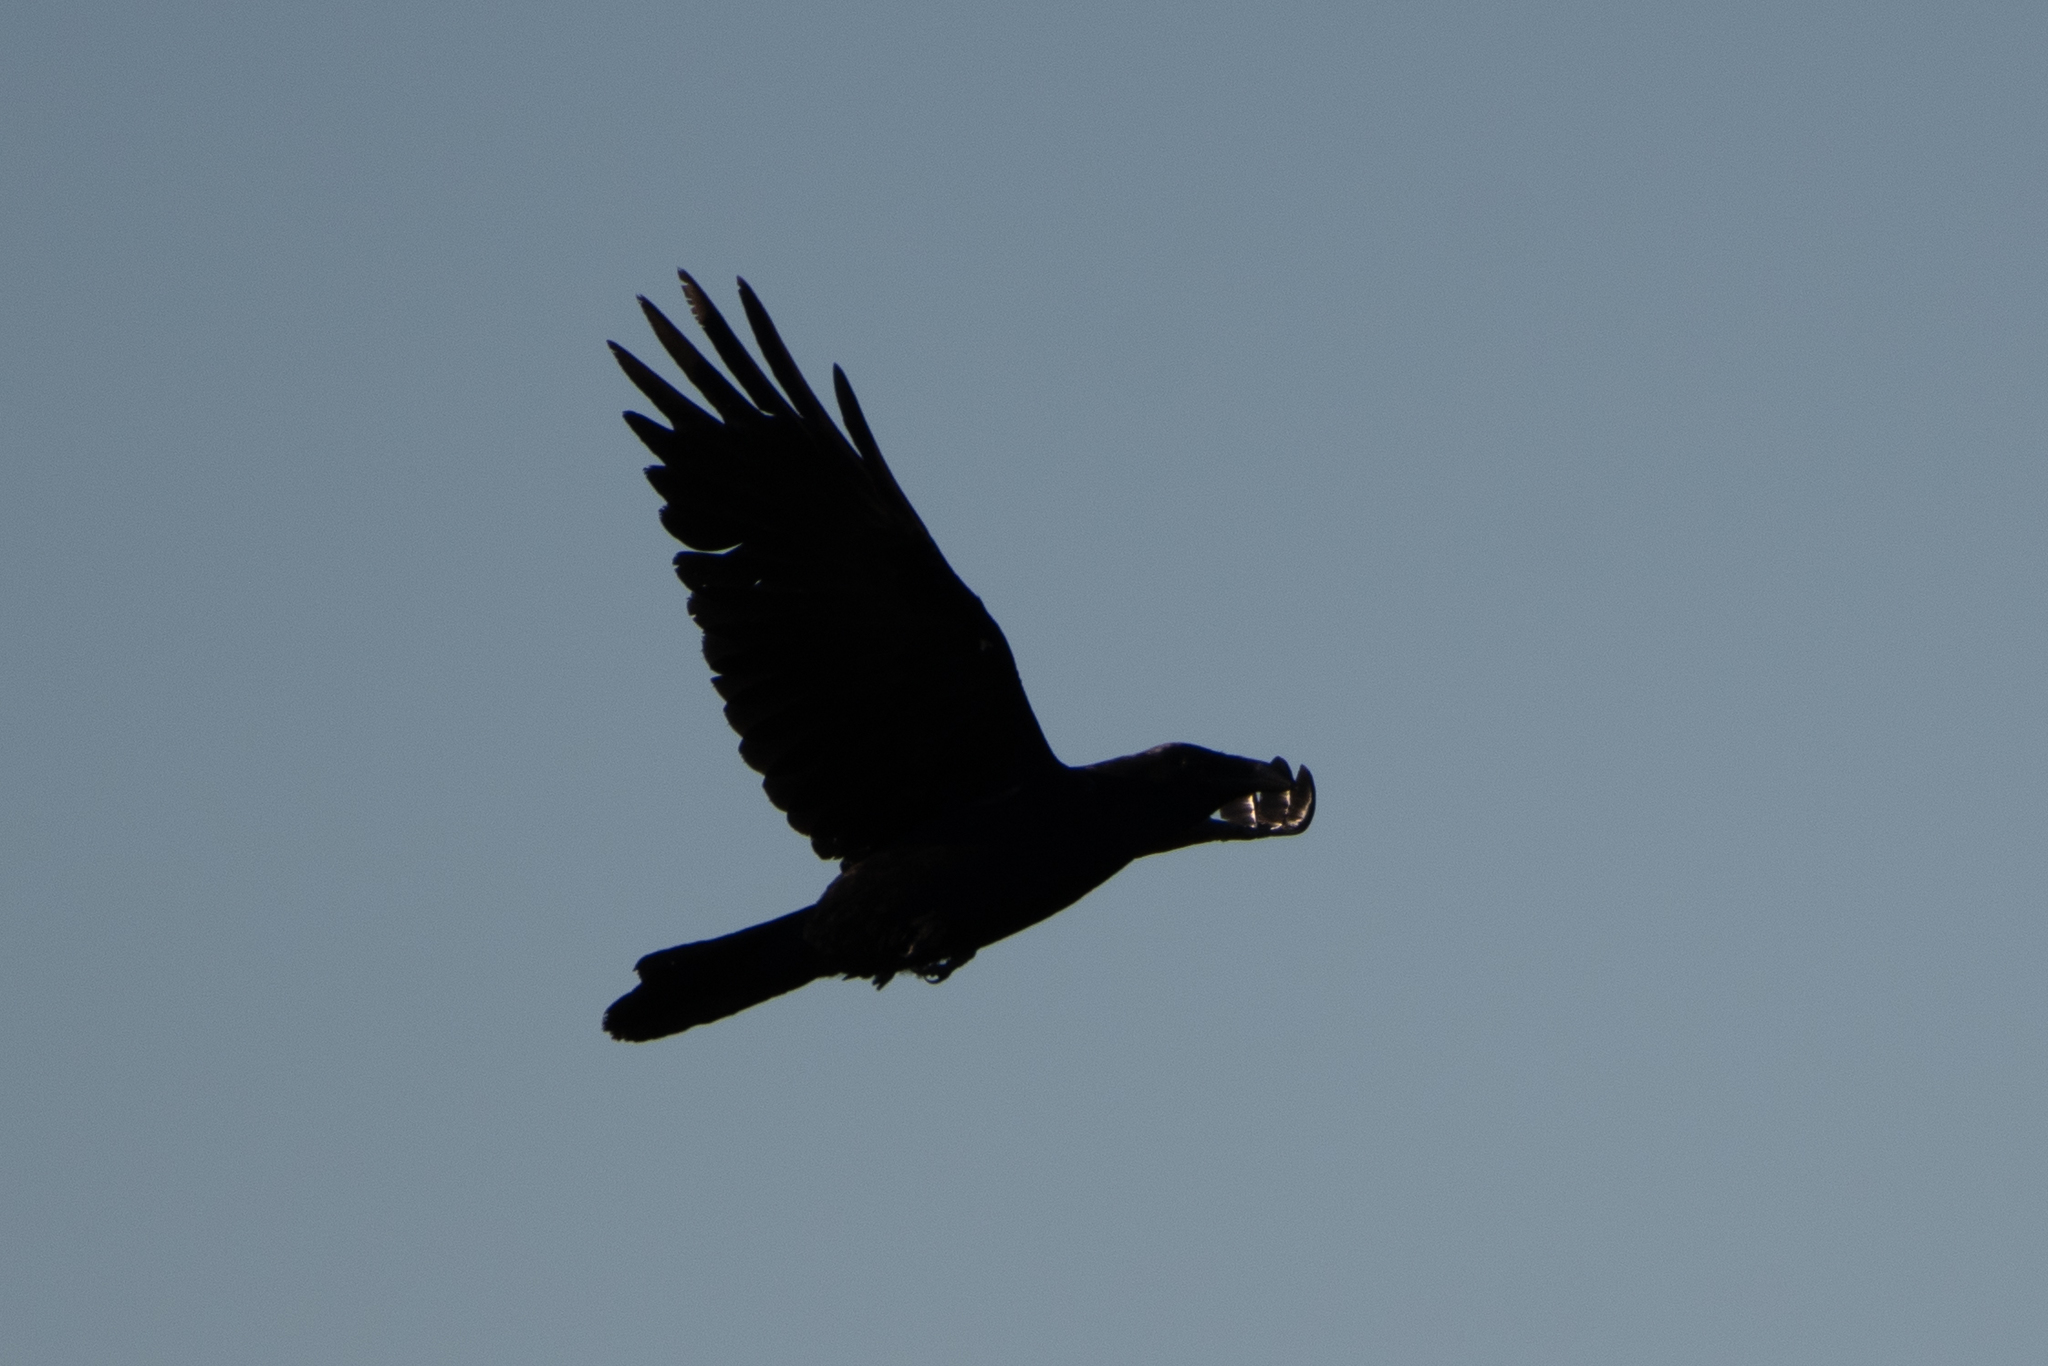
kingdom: Animalia
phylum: Chordata
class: Aves
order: Passeriformes
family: Corvidae
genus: Corvus
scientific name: Corvus corax
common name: Common raven
